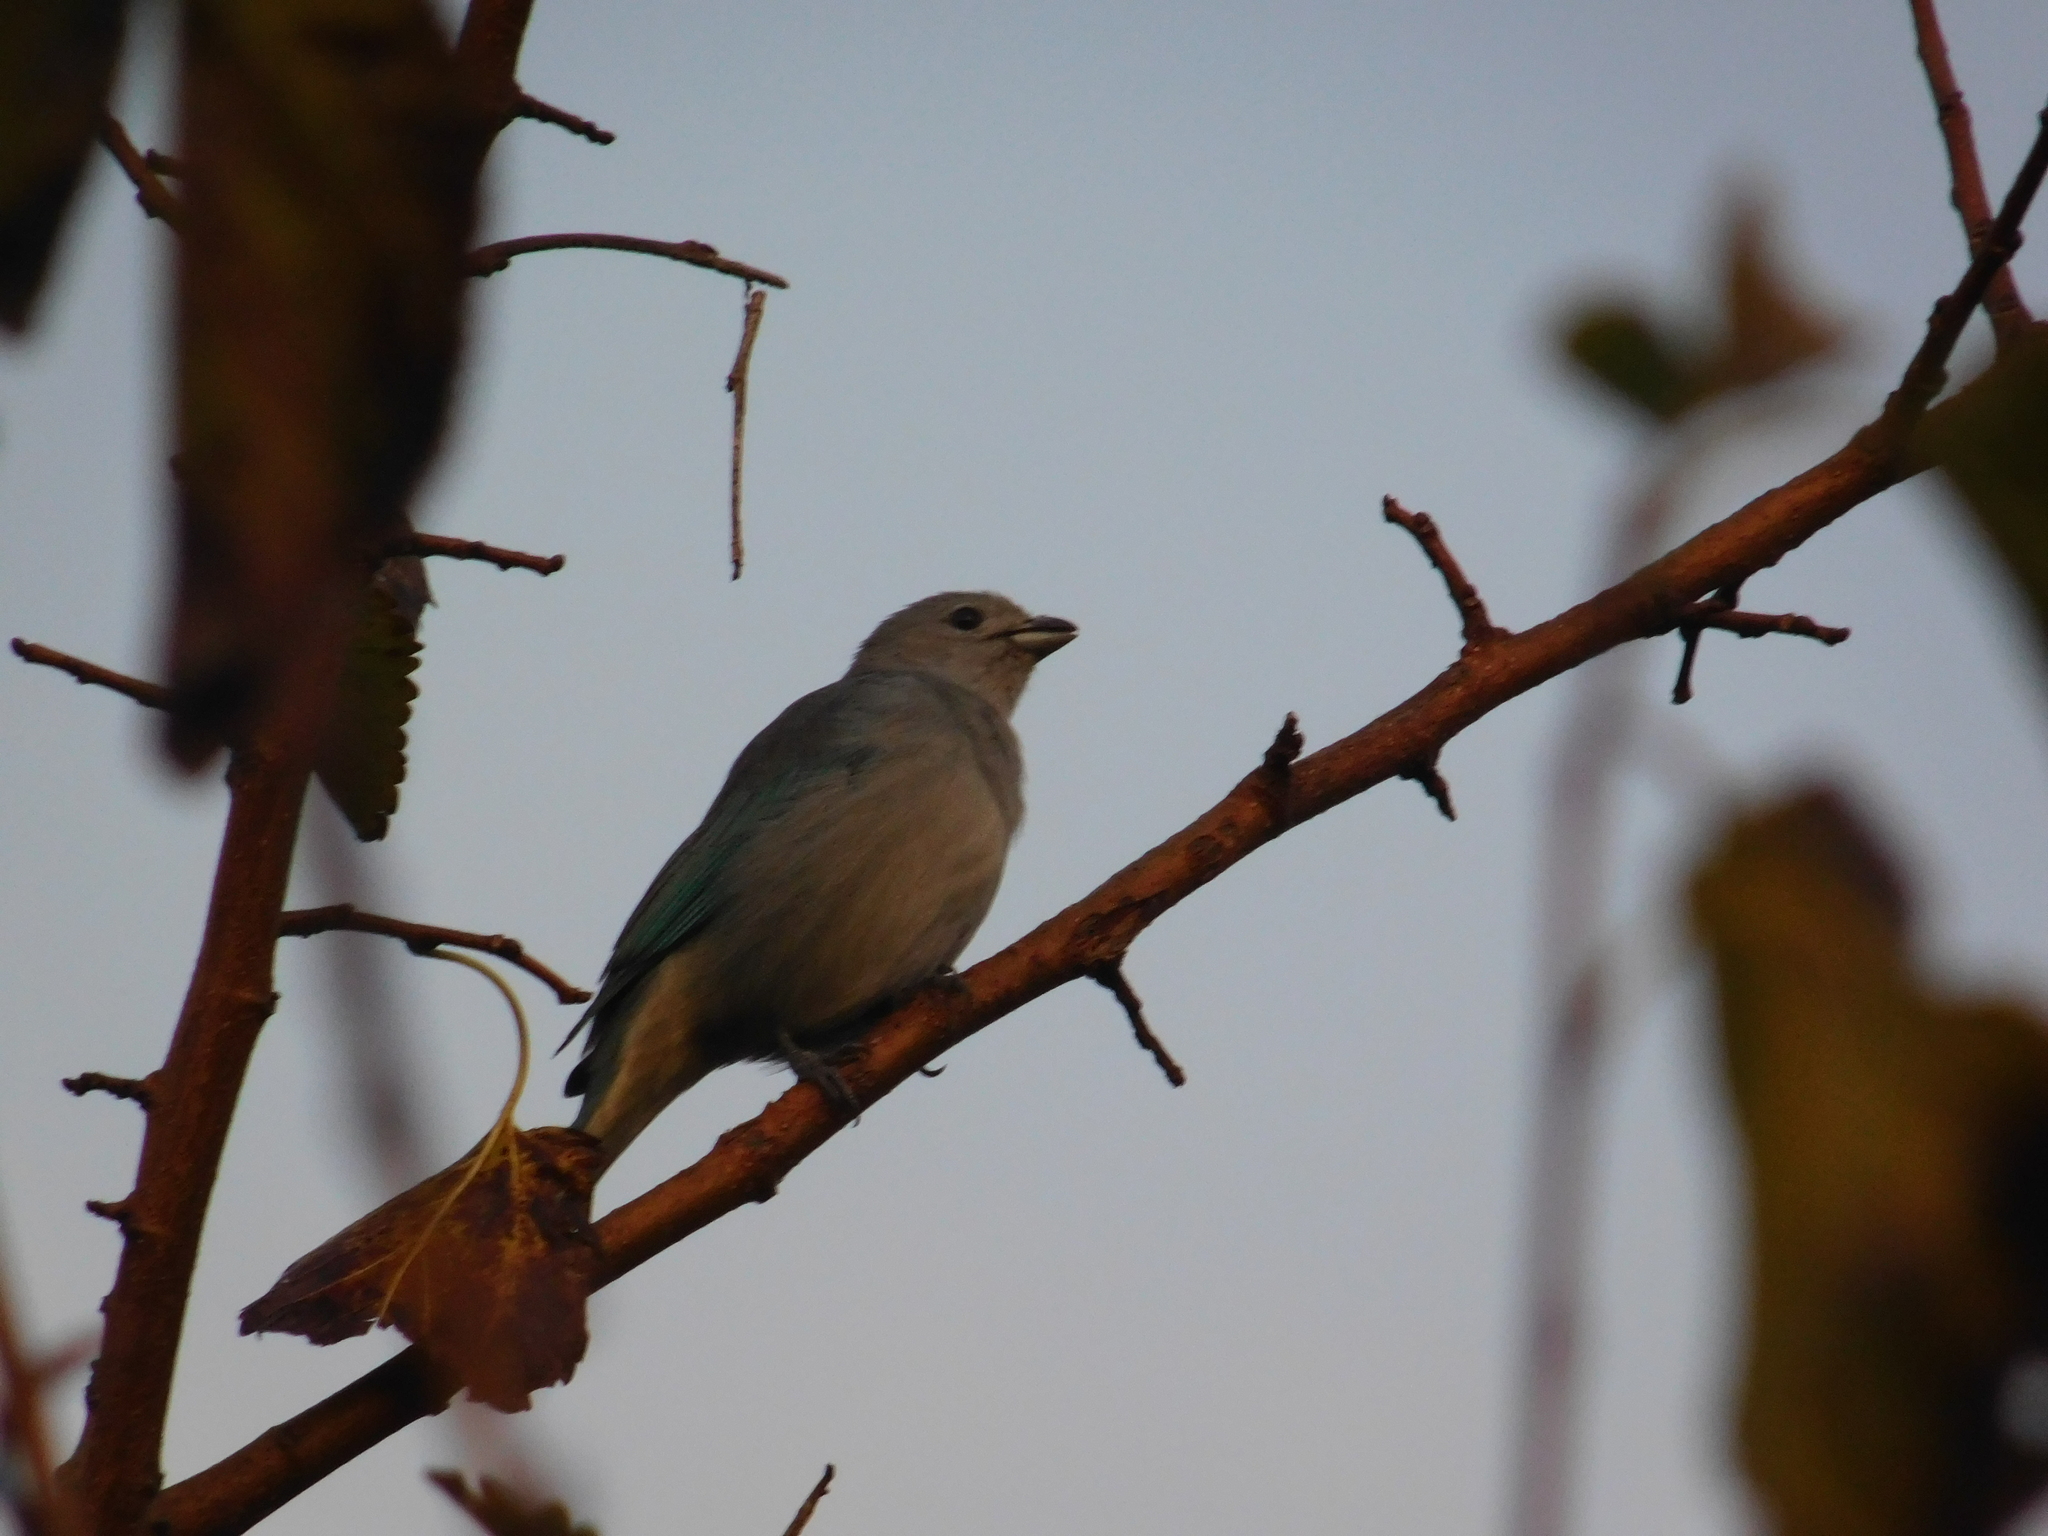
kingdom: Animalia
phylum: Chordata
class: Aves
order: Passeriformes
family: Thraupidae
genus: Thraupis
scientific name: Thraupis sayaca
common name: Sayaca tanager
